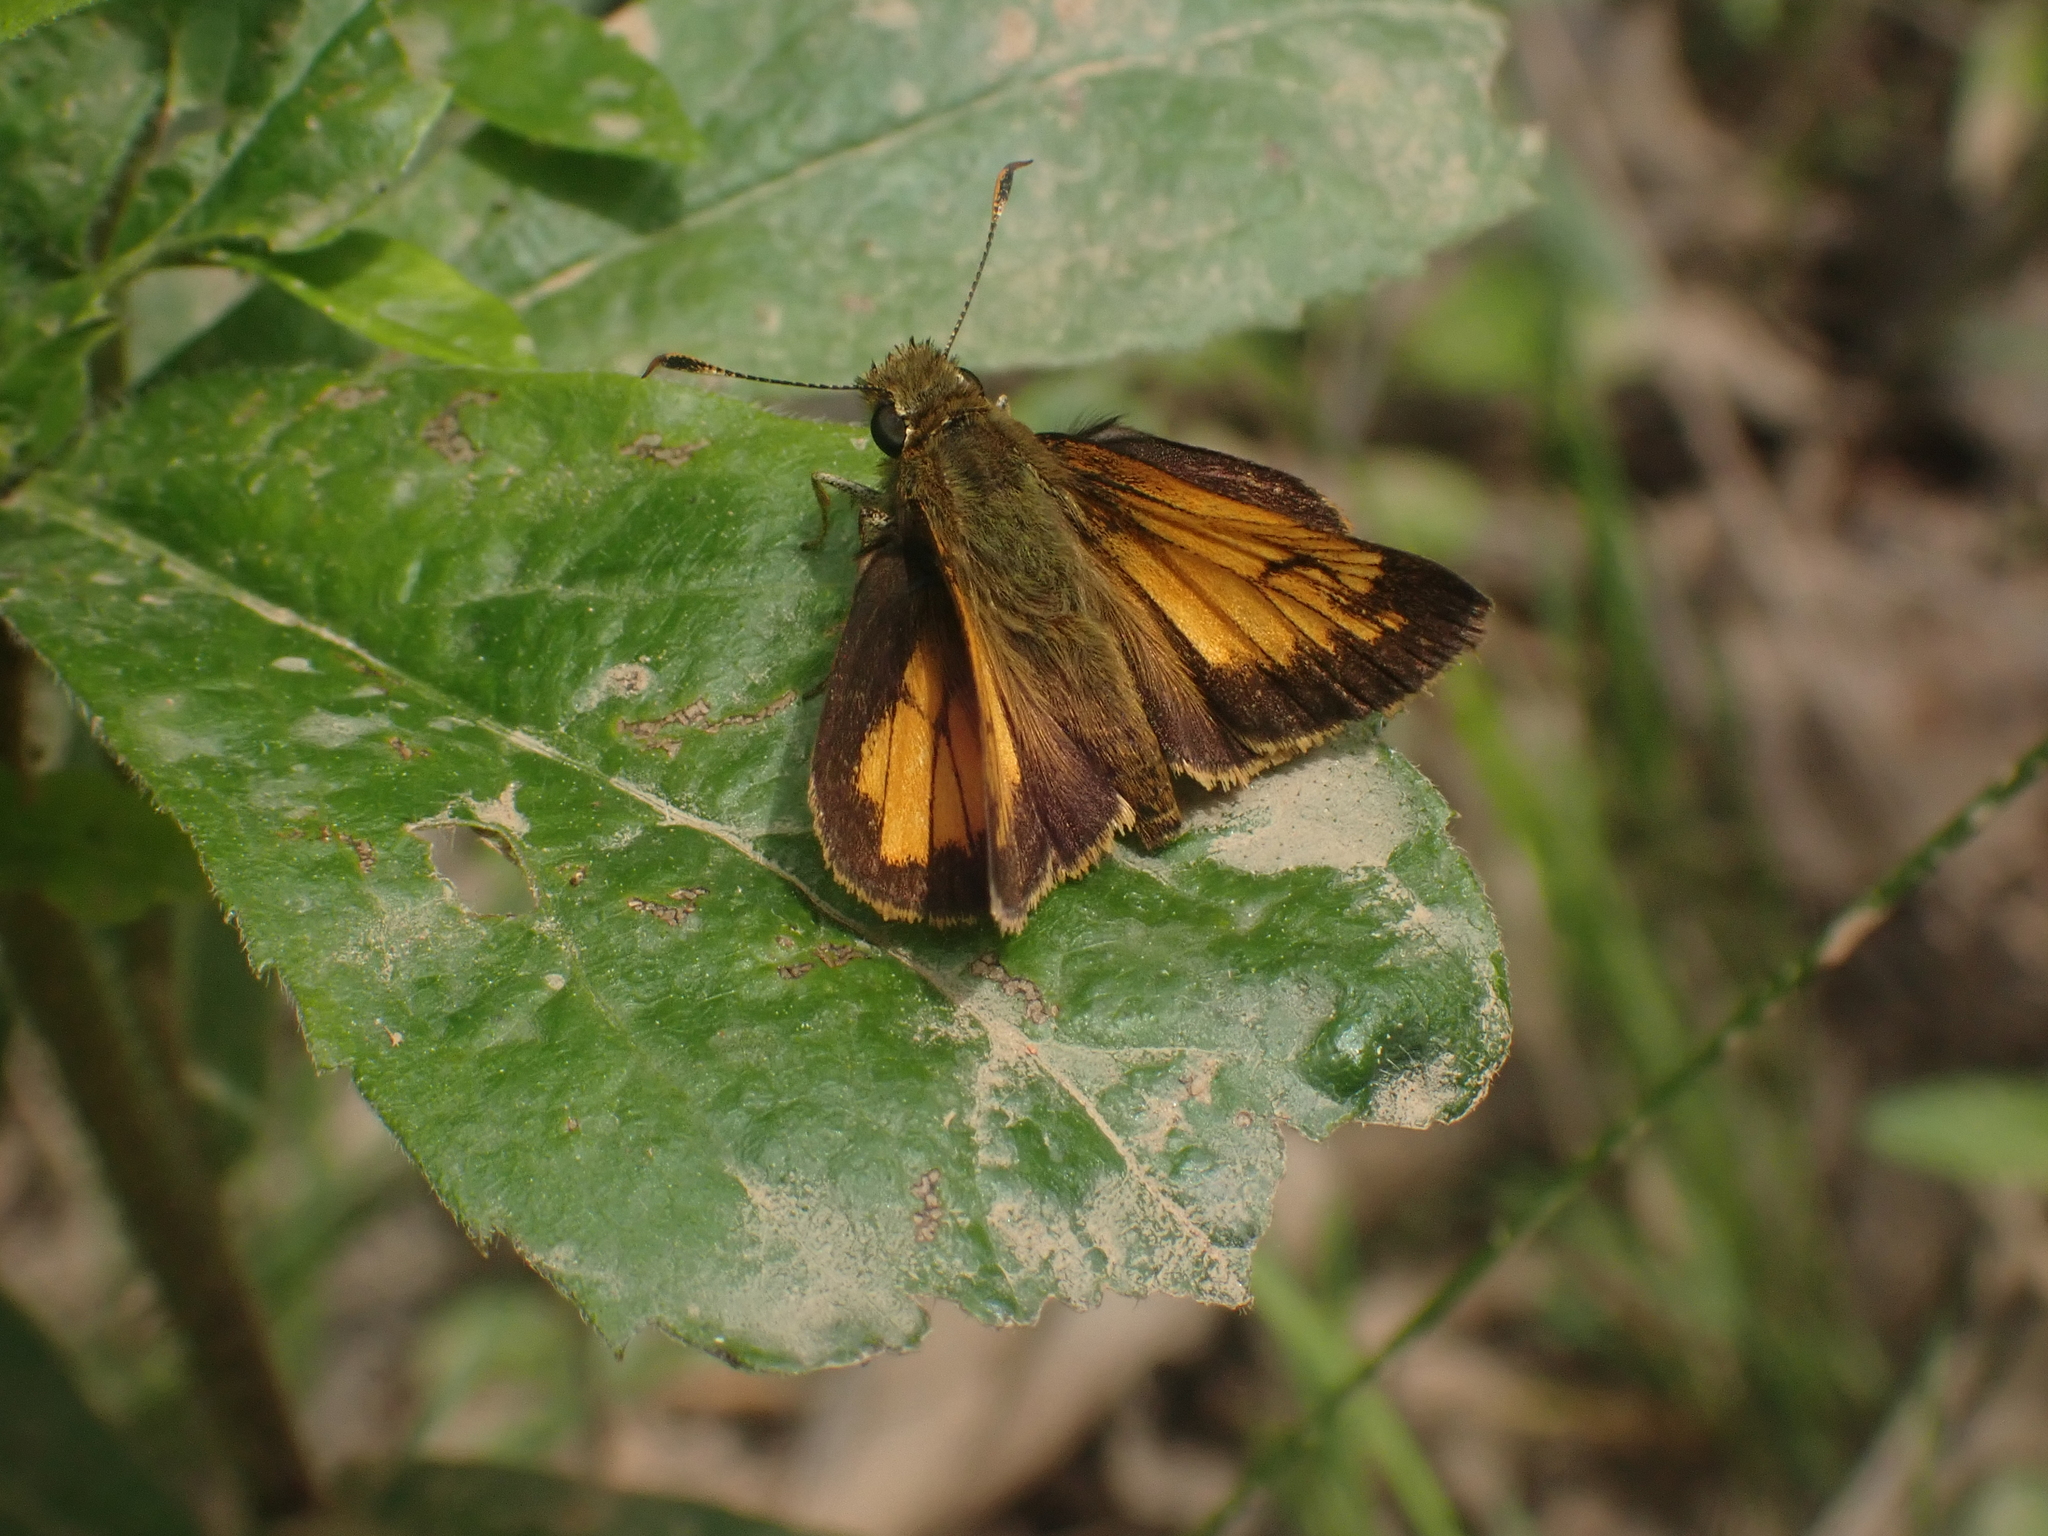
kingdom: Animalia
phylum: Arthropoda
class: Insecta
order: Lepidoptera
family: Hesperiidae
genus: Lon
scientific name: Lon hobomok
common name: Hobomok skipper
